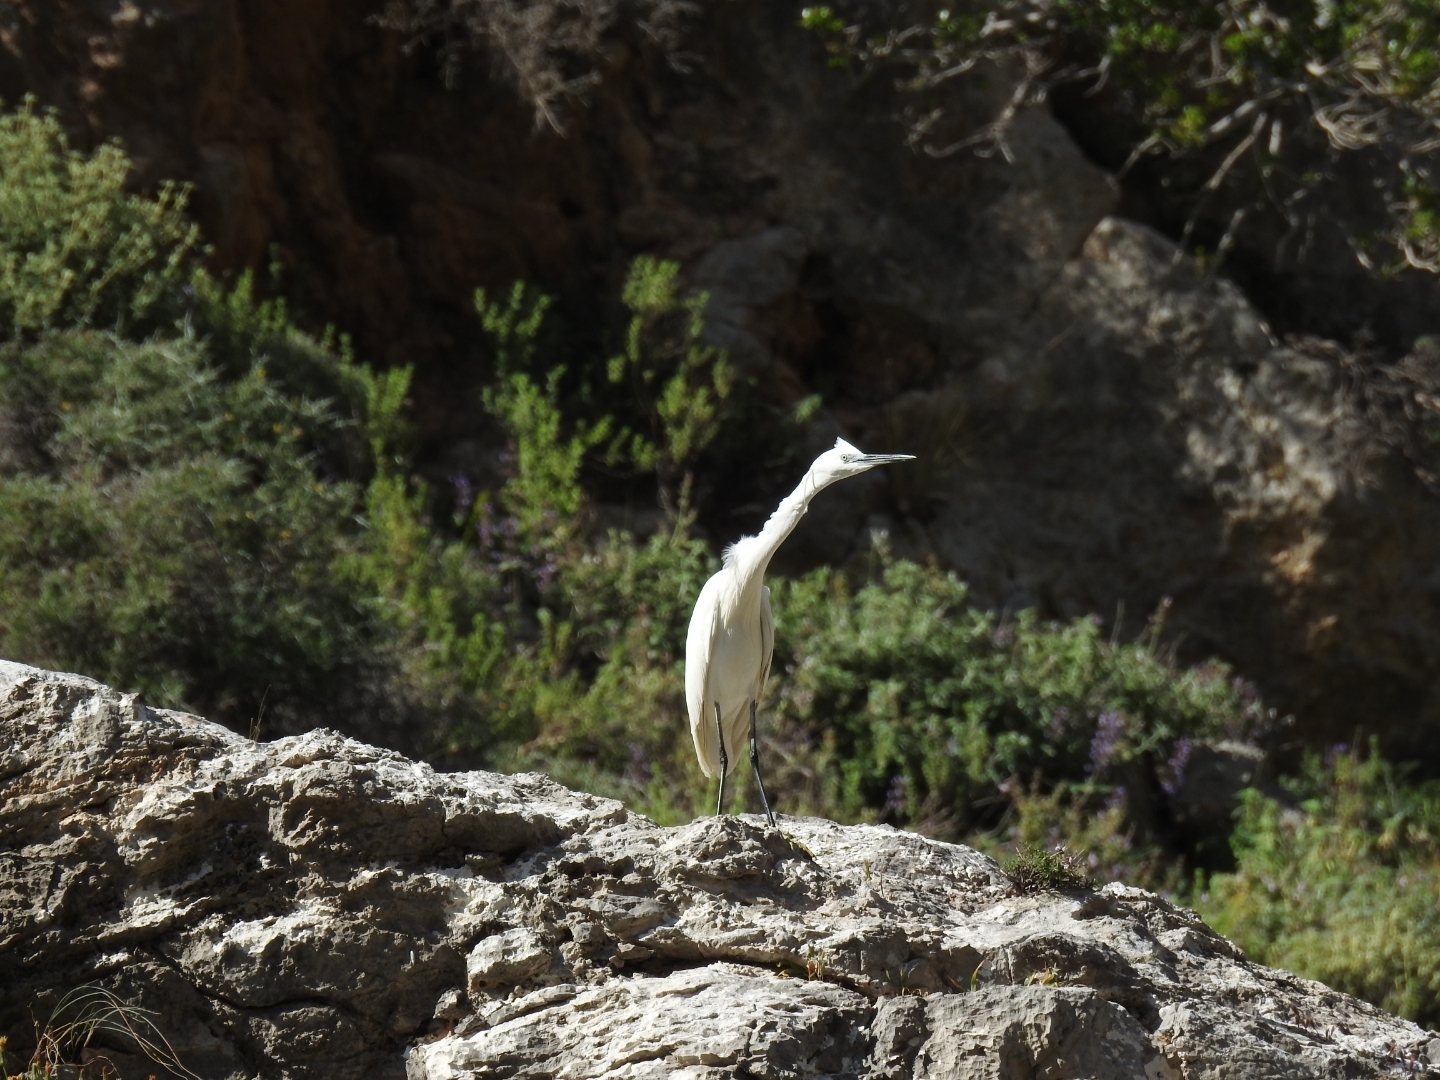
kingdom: Animalia
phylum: Chordata
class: Aves
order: Pelecaniformes
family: Ardeidae
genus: Egretta
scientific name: Egretta garzetta
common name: Little egret
